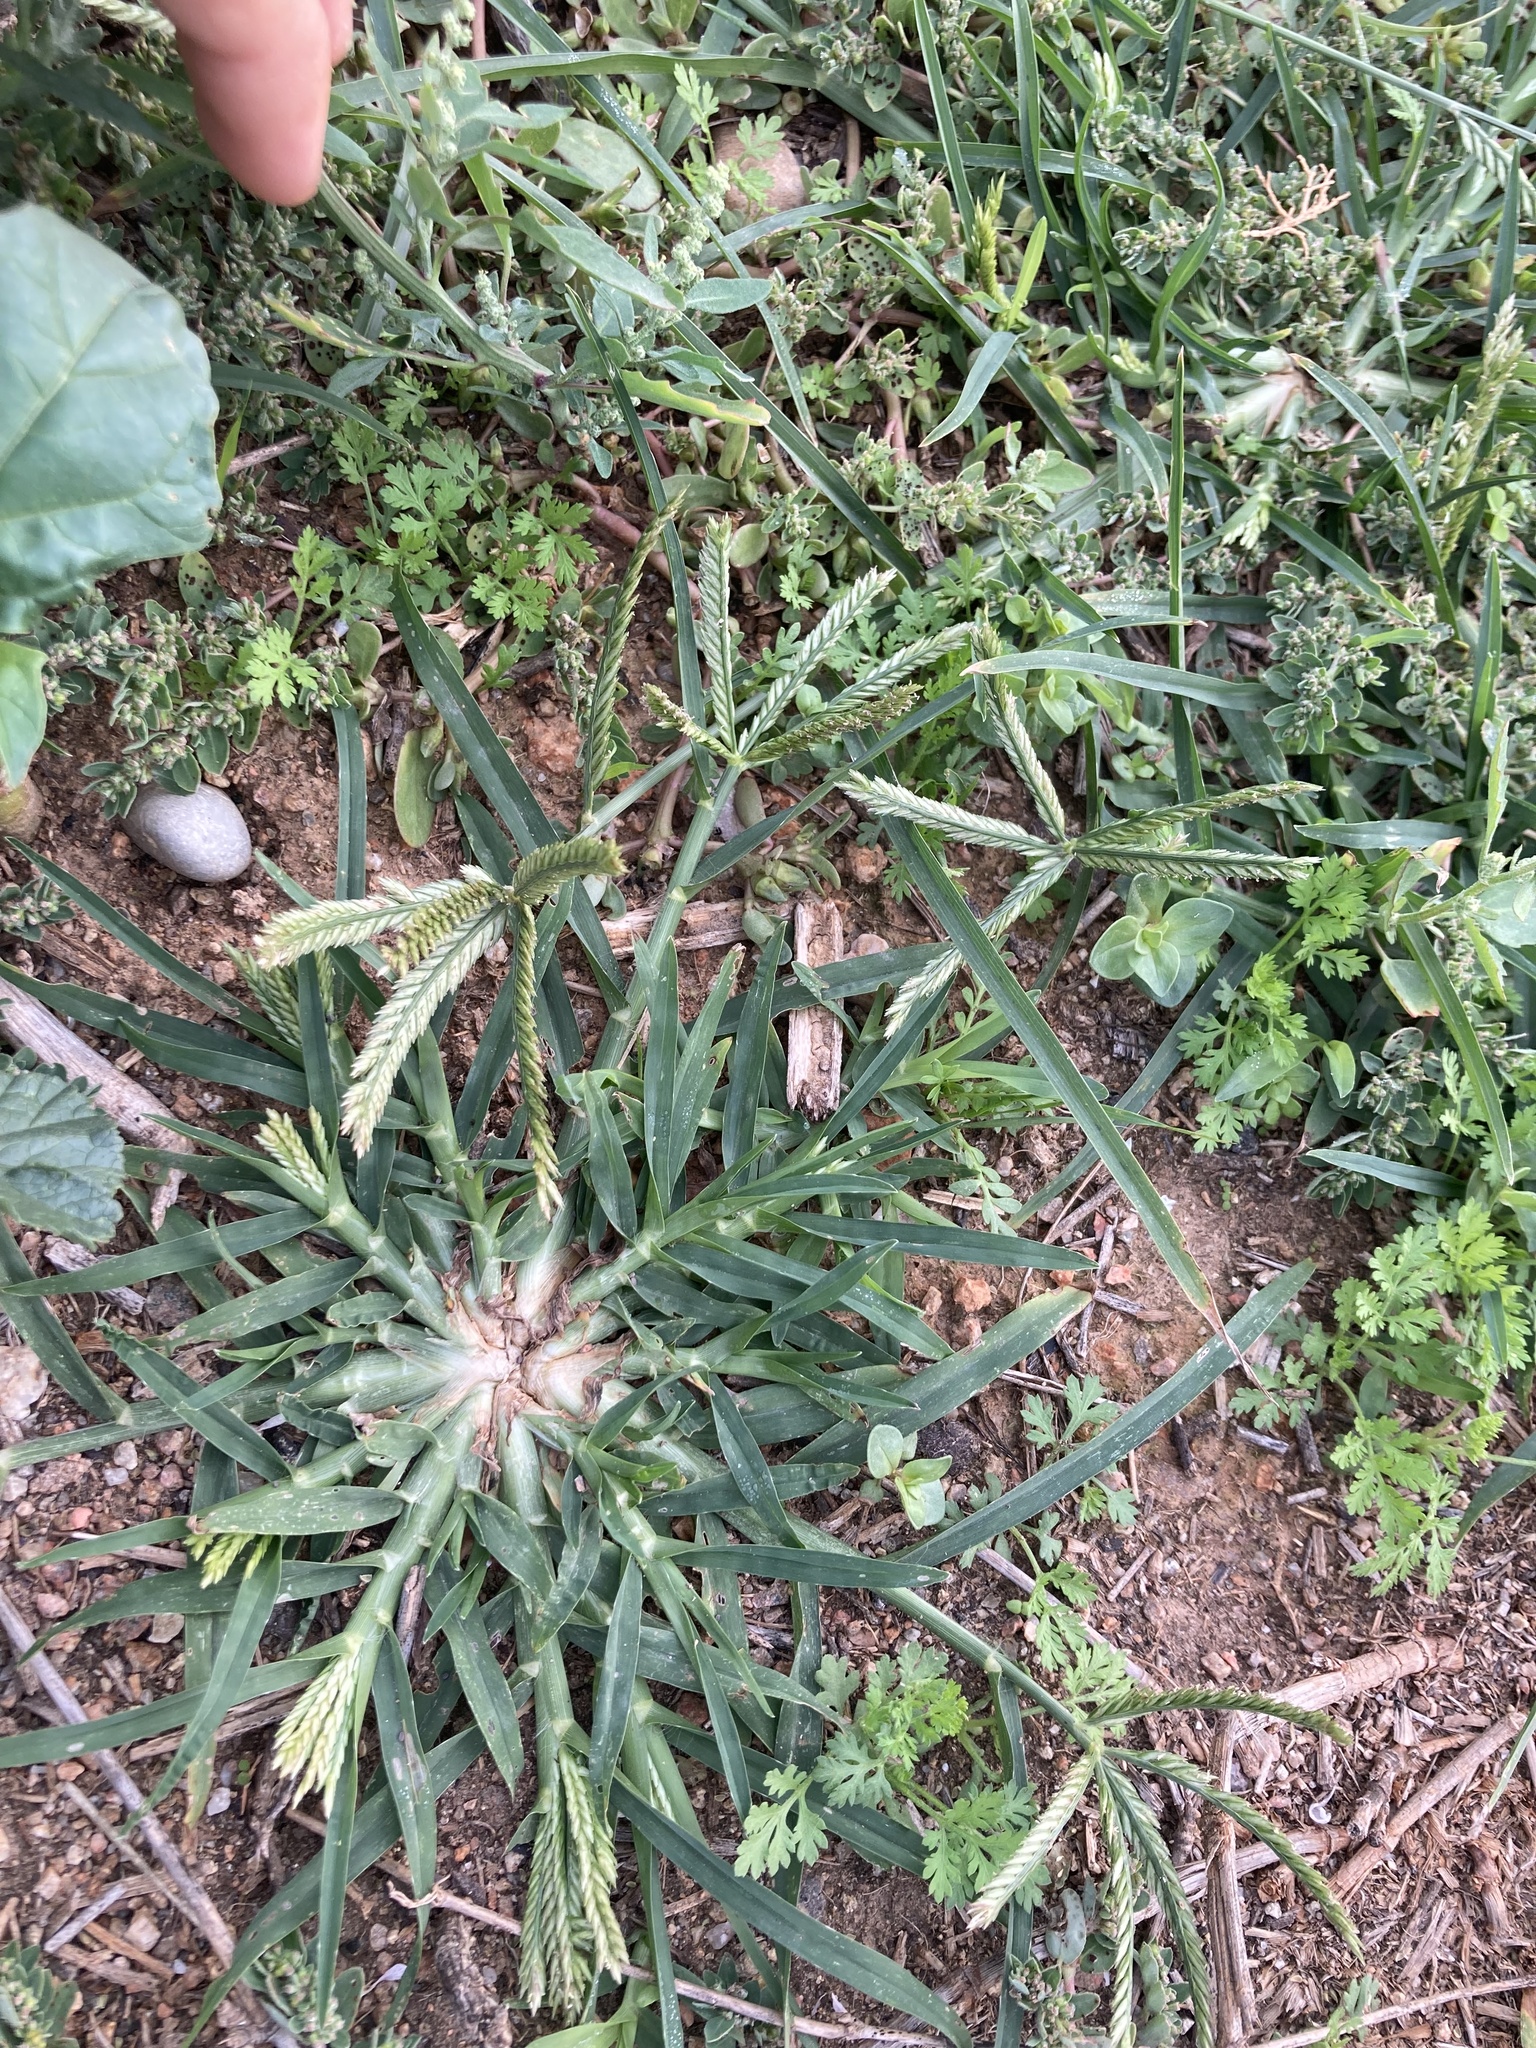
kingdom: Plantae
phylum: Tracheophyta
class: Liliopsida
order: Poales
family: Poaceae
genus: Eleusine
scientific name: Eleusine indica
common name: Yard-grass
